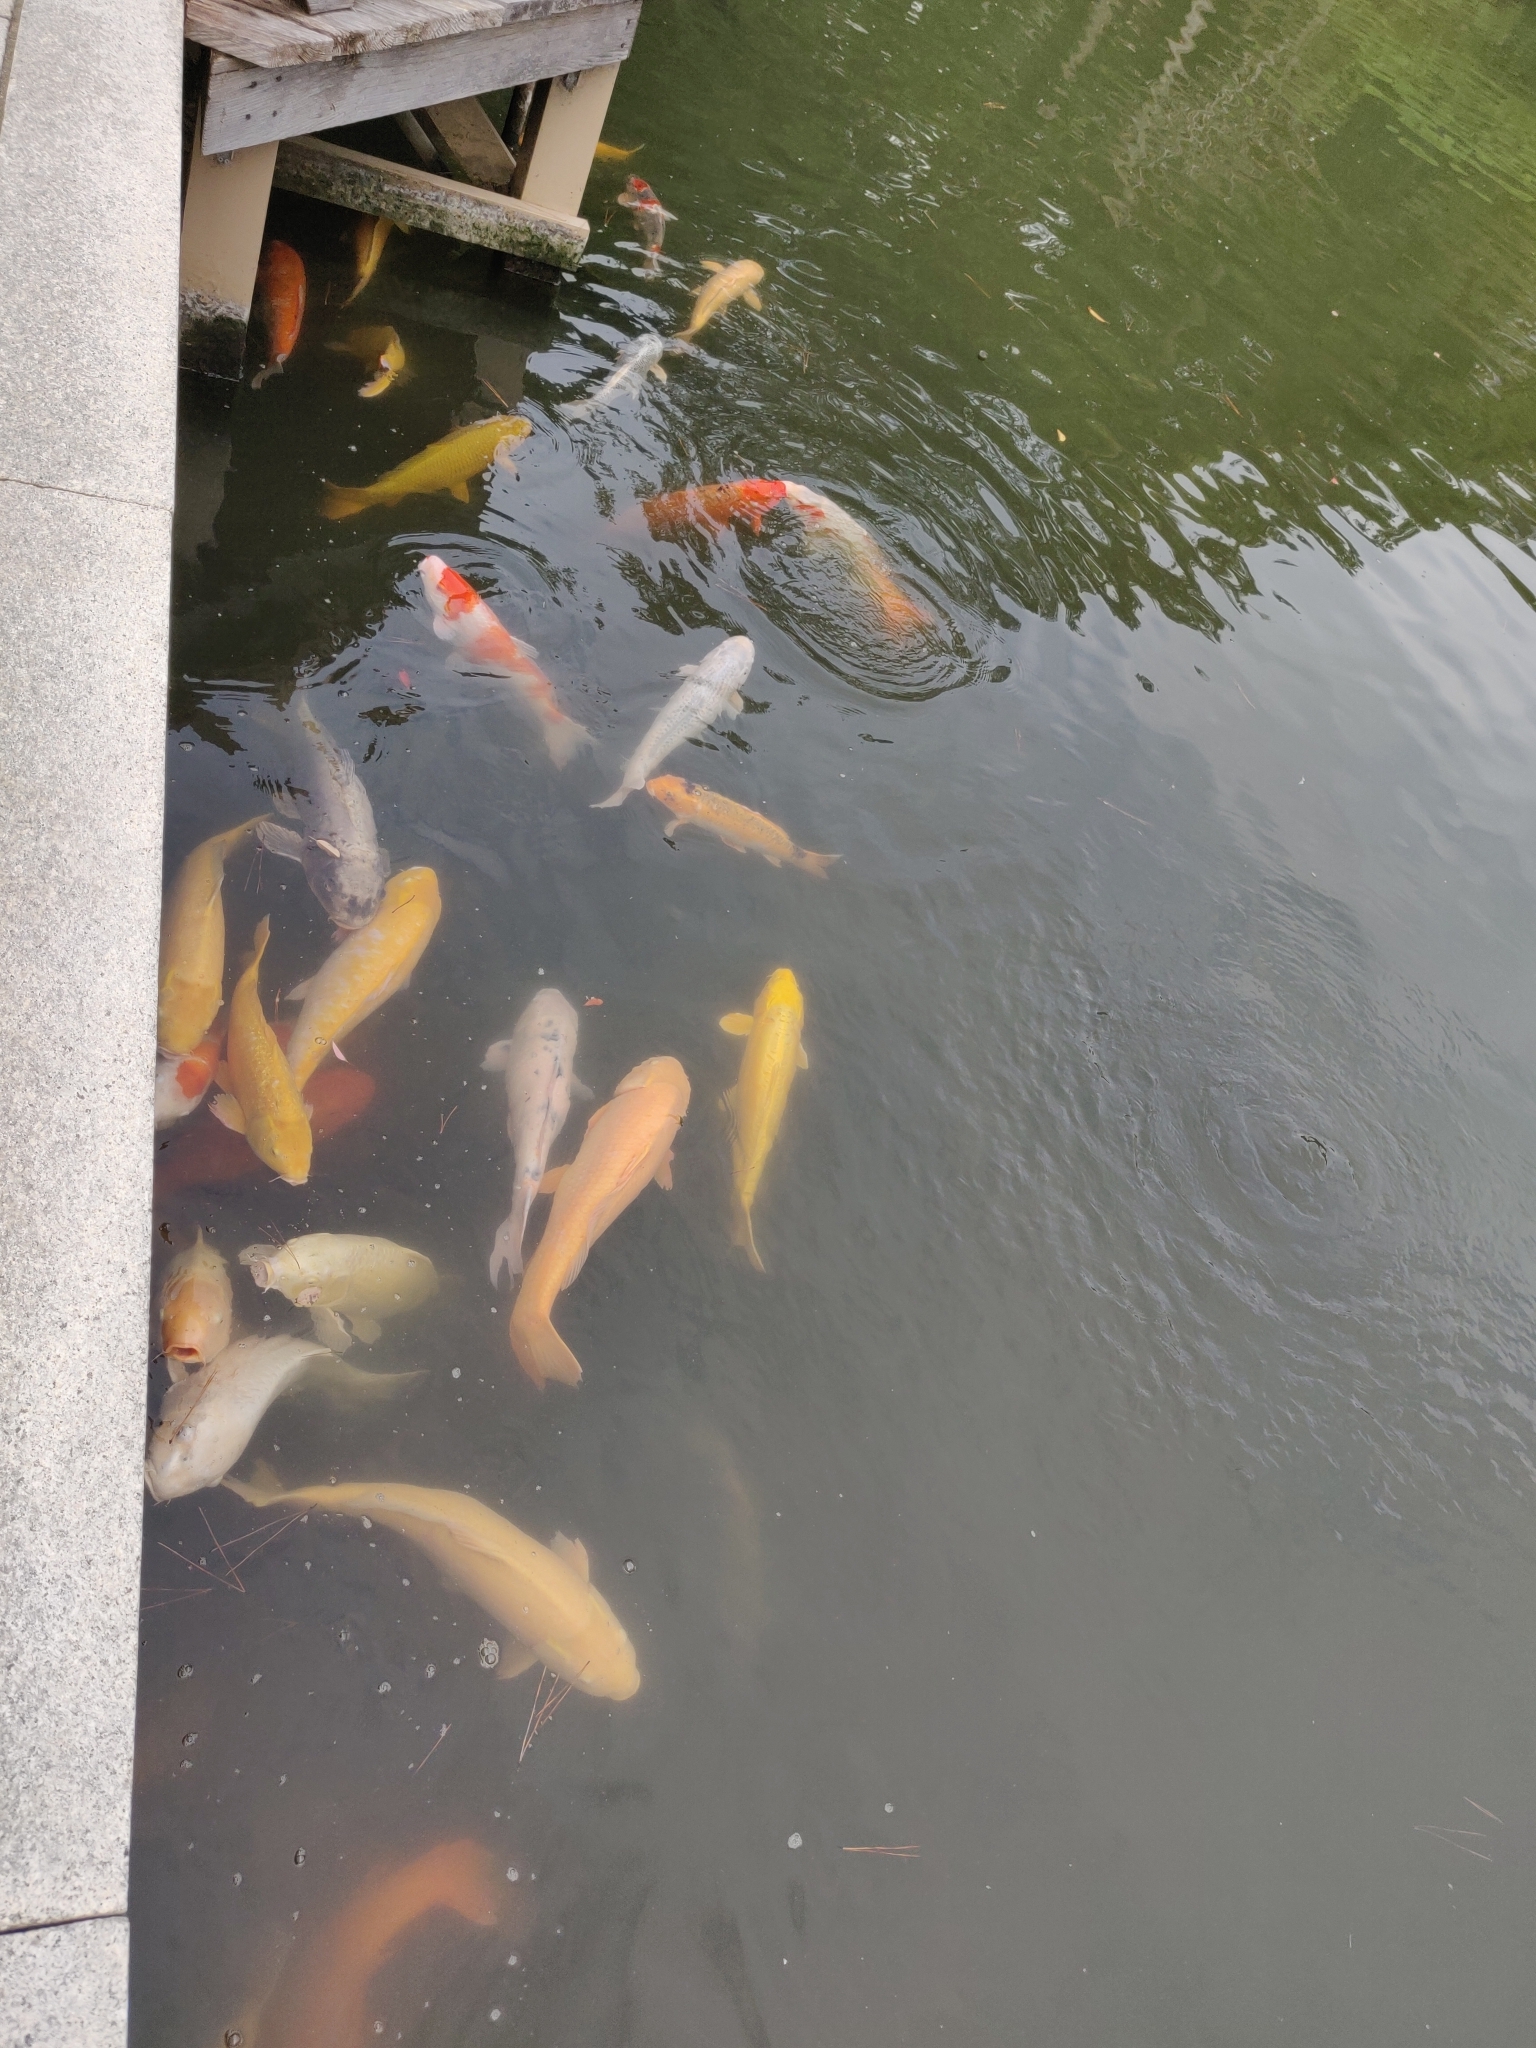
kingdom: Animalia
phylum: Chordata
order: Cypriniformes
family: Cyprinidae
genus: Cyprinus
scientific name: Cyprinus rubrofuscus
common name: Koi
